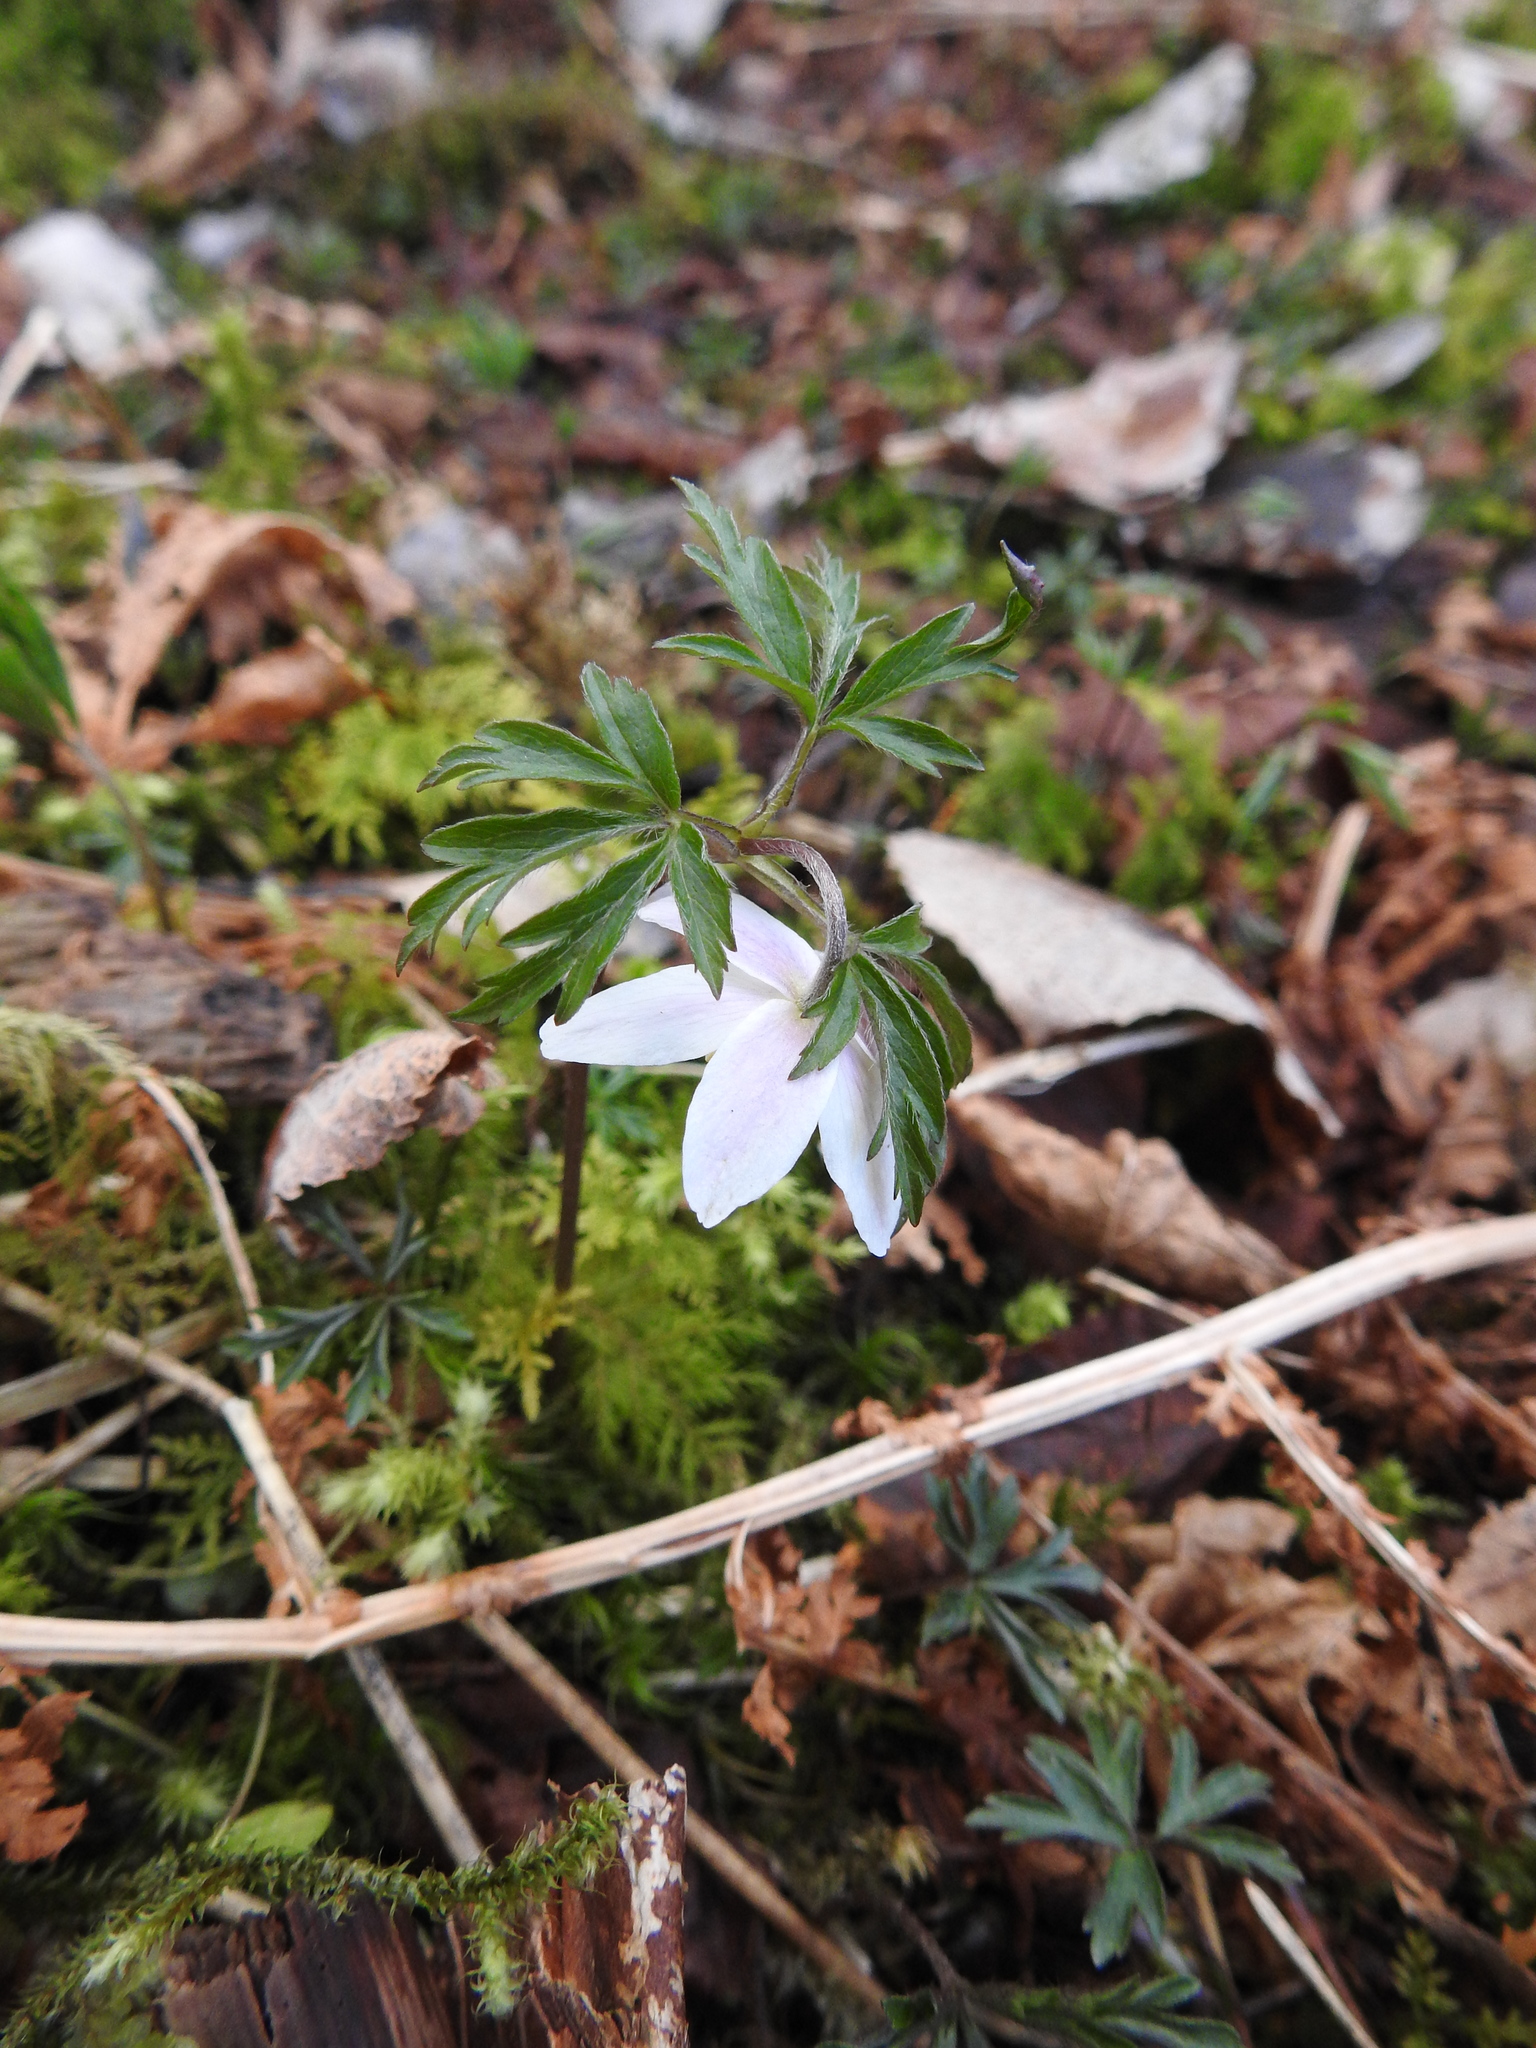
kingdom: Plantae
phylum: Tracheophyta
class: Magnoliopsida
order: Ranunculales
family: Ranunculaceae
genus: Anemone
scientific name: Anemone nemorosa
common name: Wood anemone
